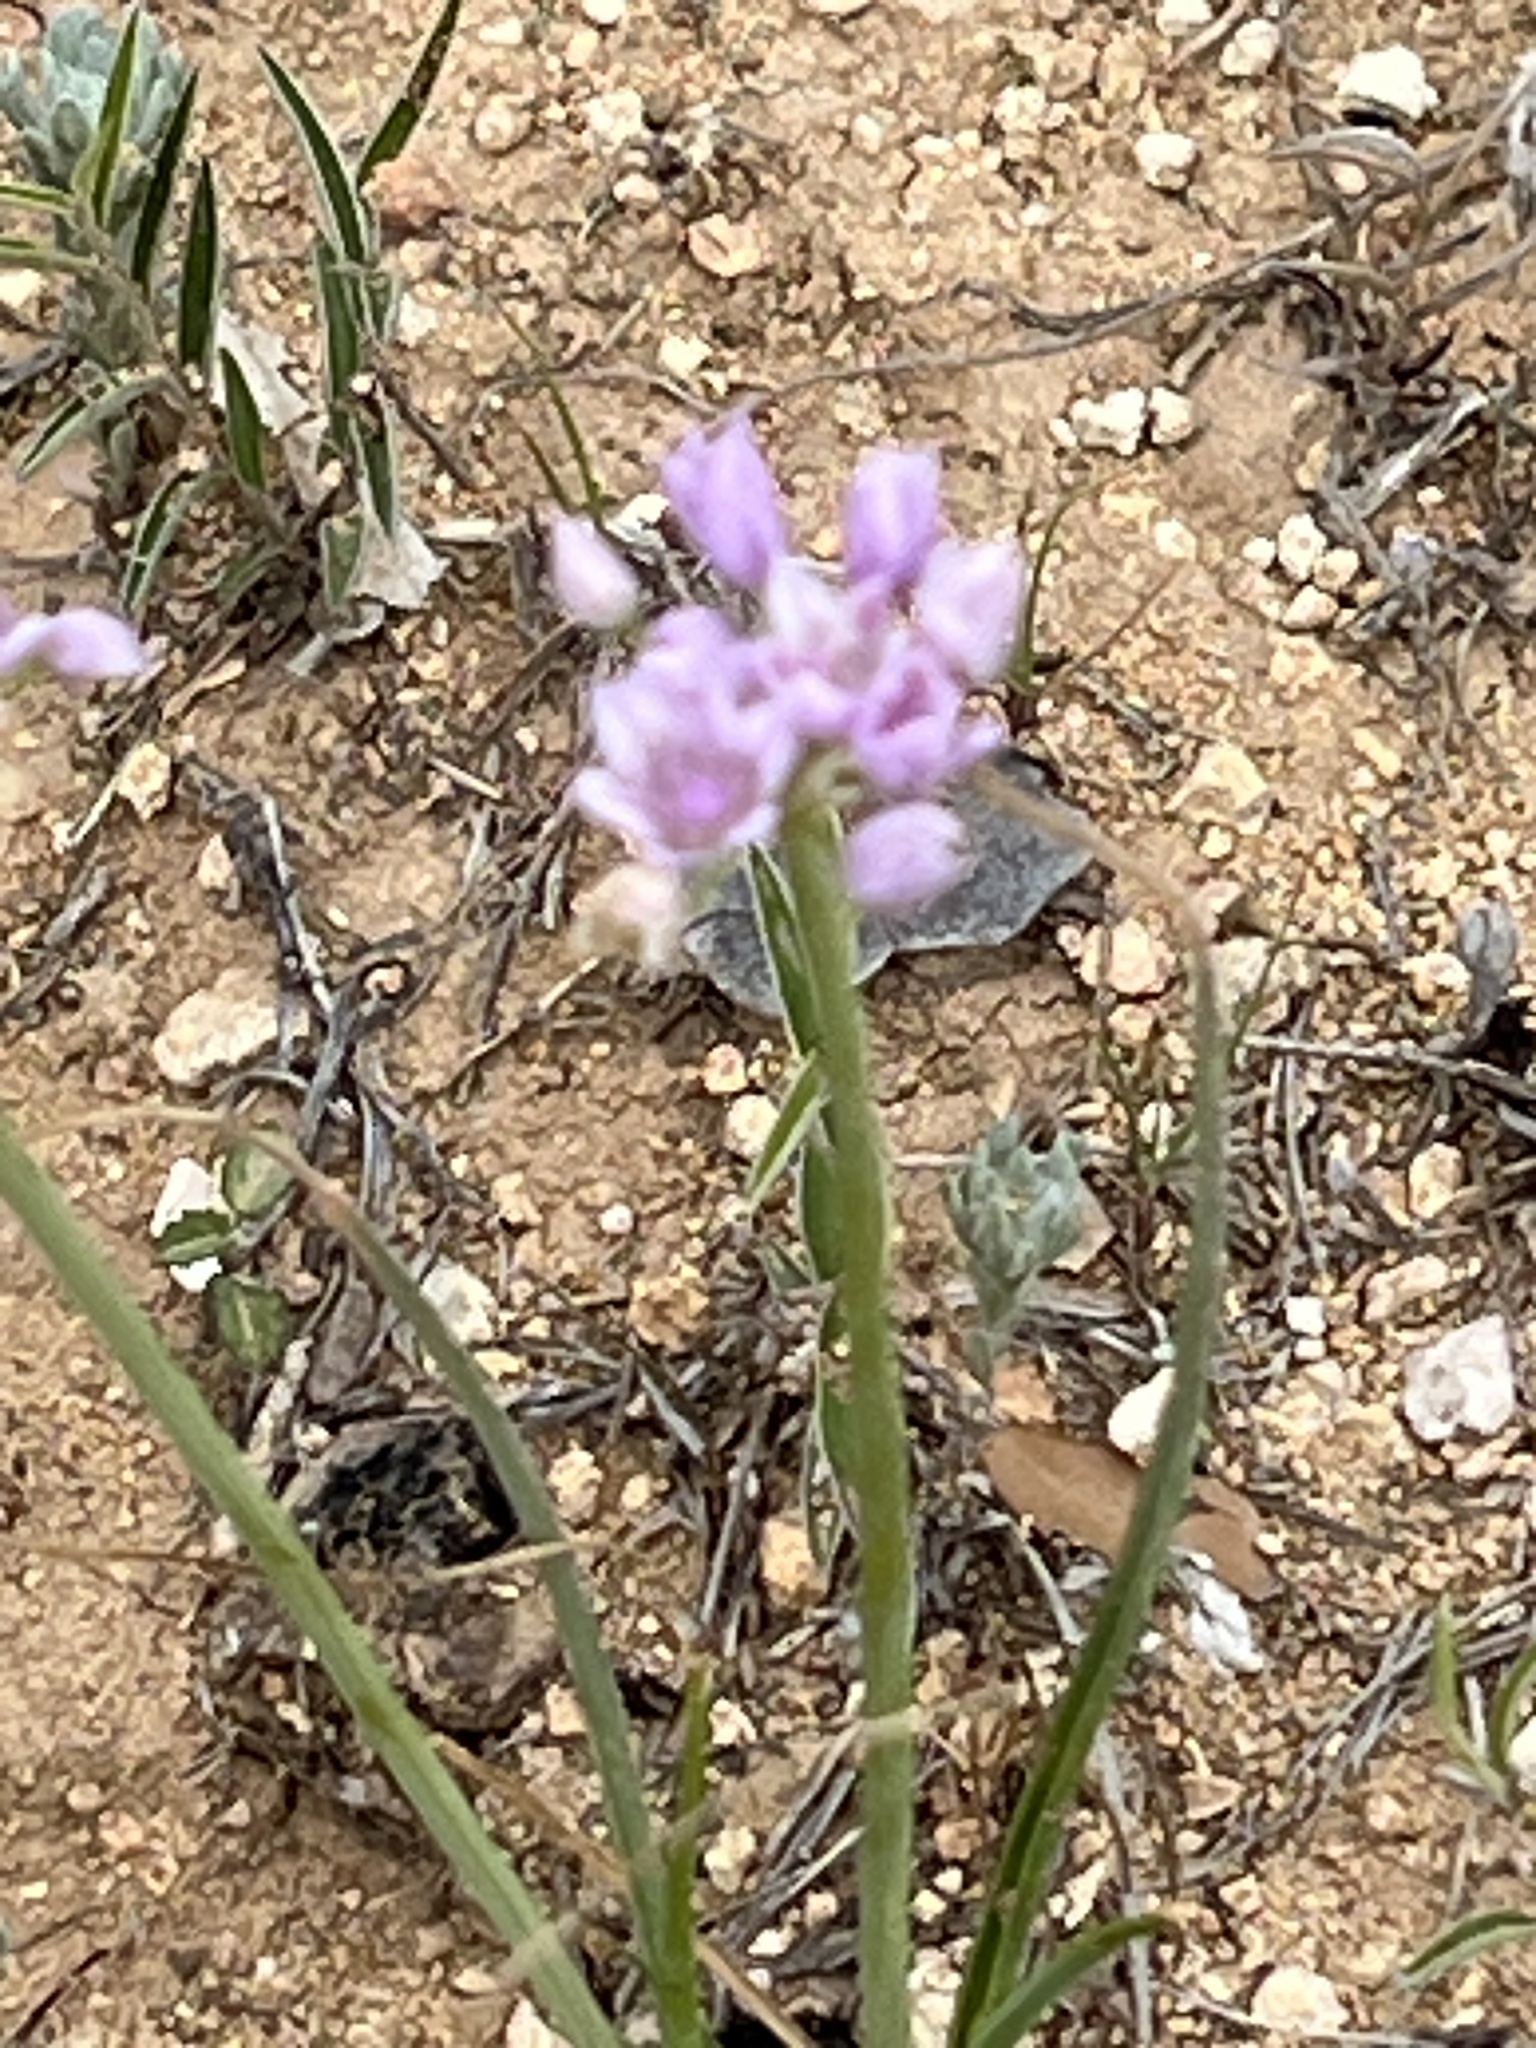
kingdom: Plantae
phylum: Tracheophyta
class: Liliopsida
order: Asparagales
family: Amaryllidaceae
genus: Allium
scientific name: Allium drummondii
